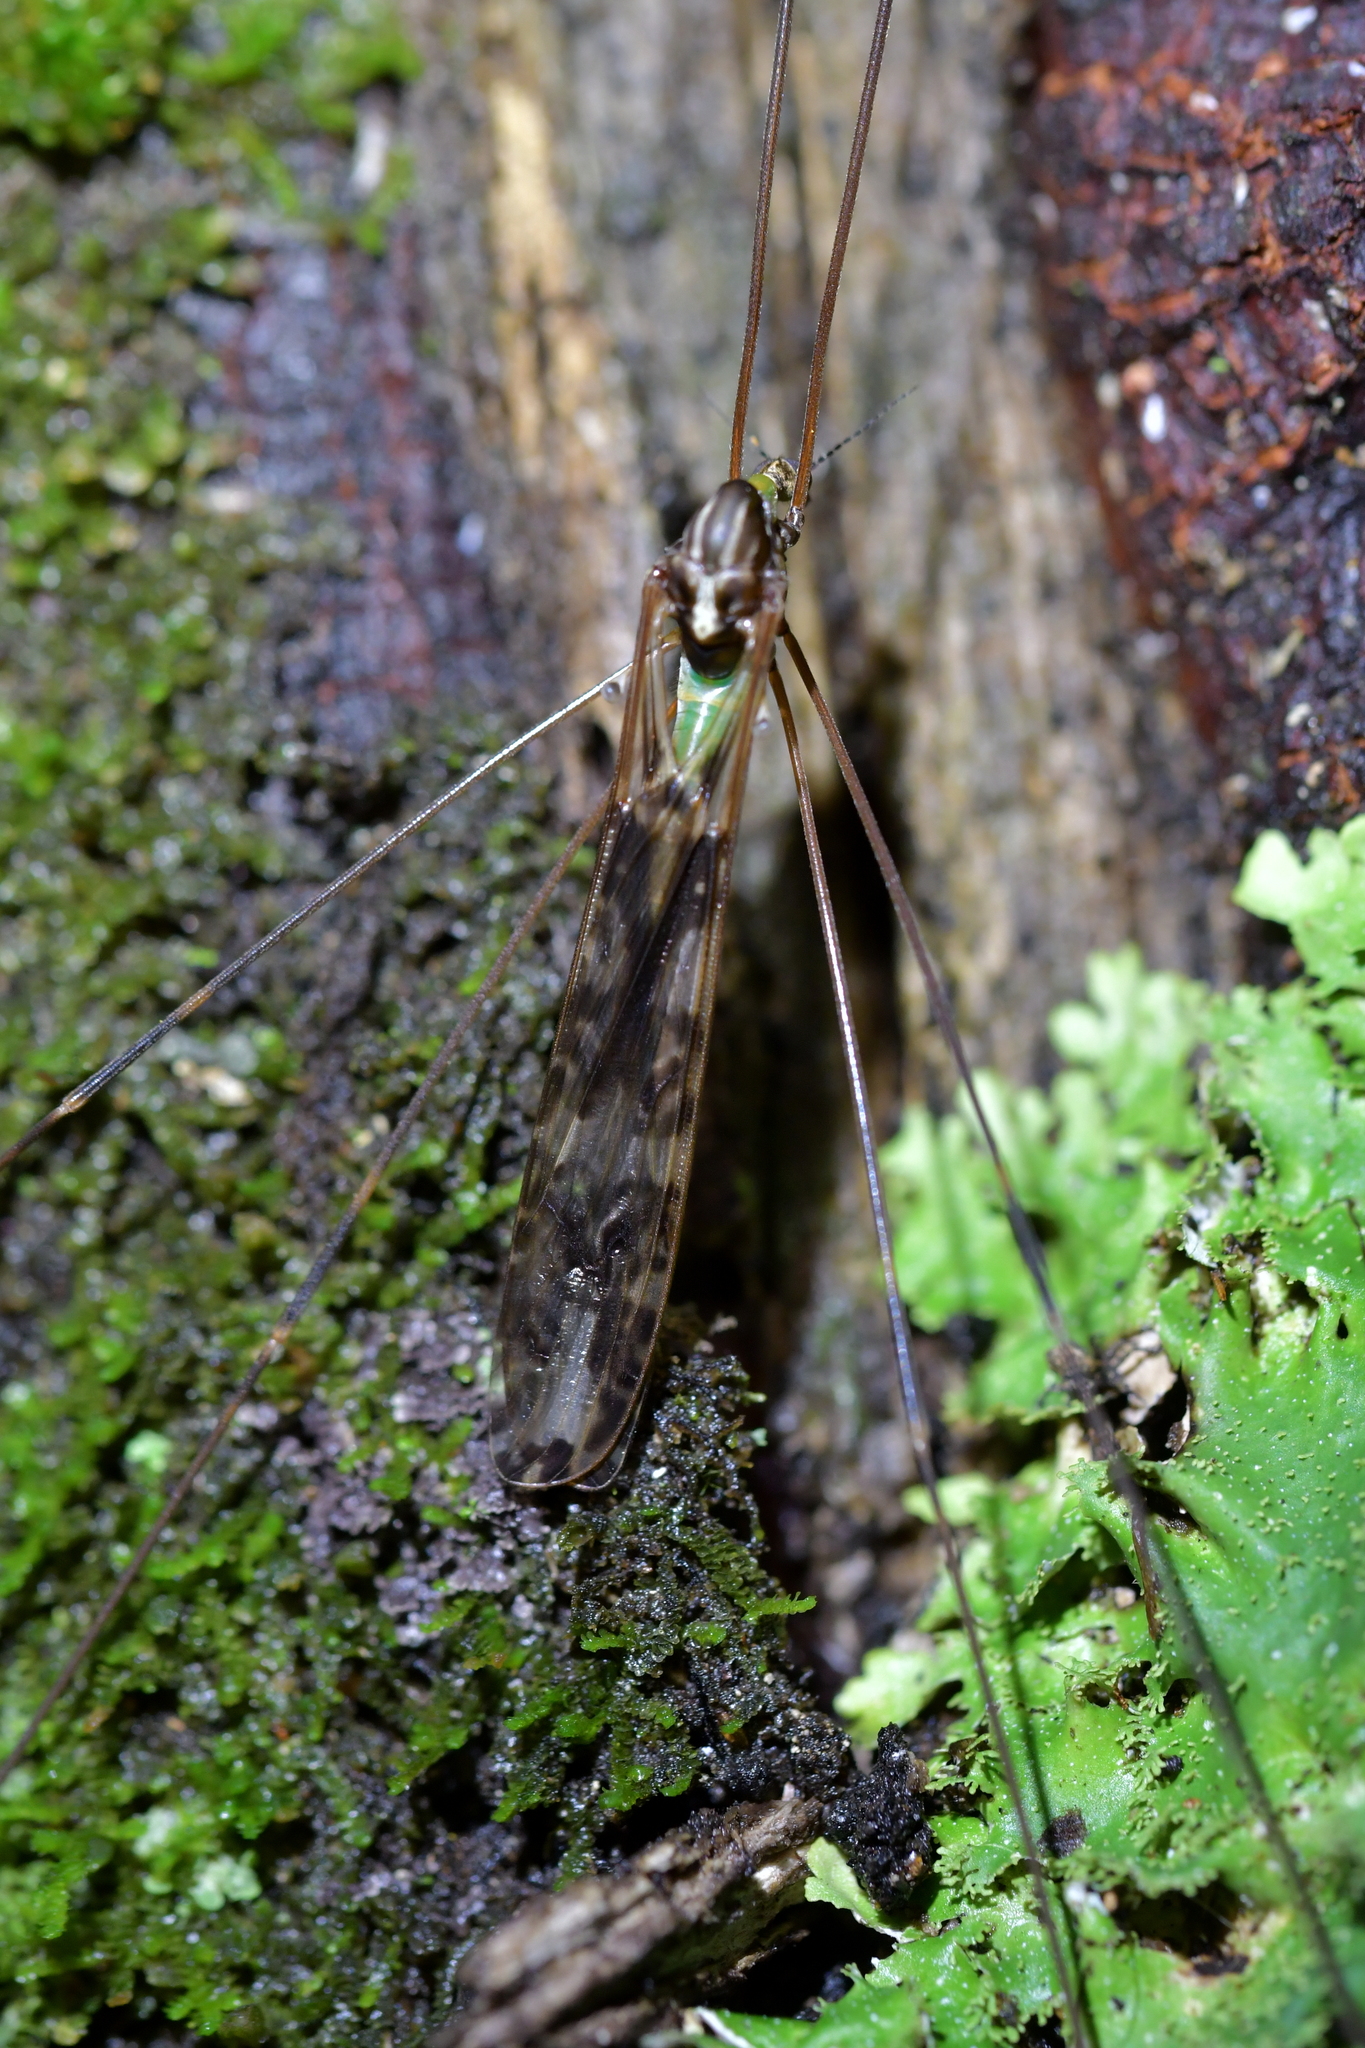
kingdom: Animalia
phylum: Arthropoda
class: Insecta
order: Diptera
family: Limoniidae
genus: Discobola
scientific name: Discobola dohrni
